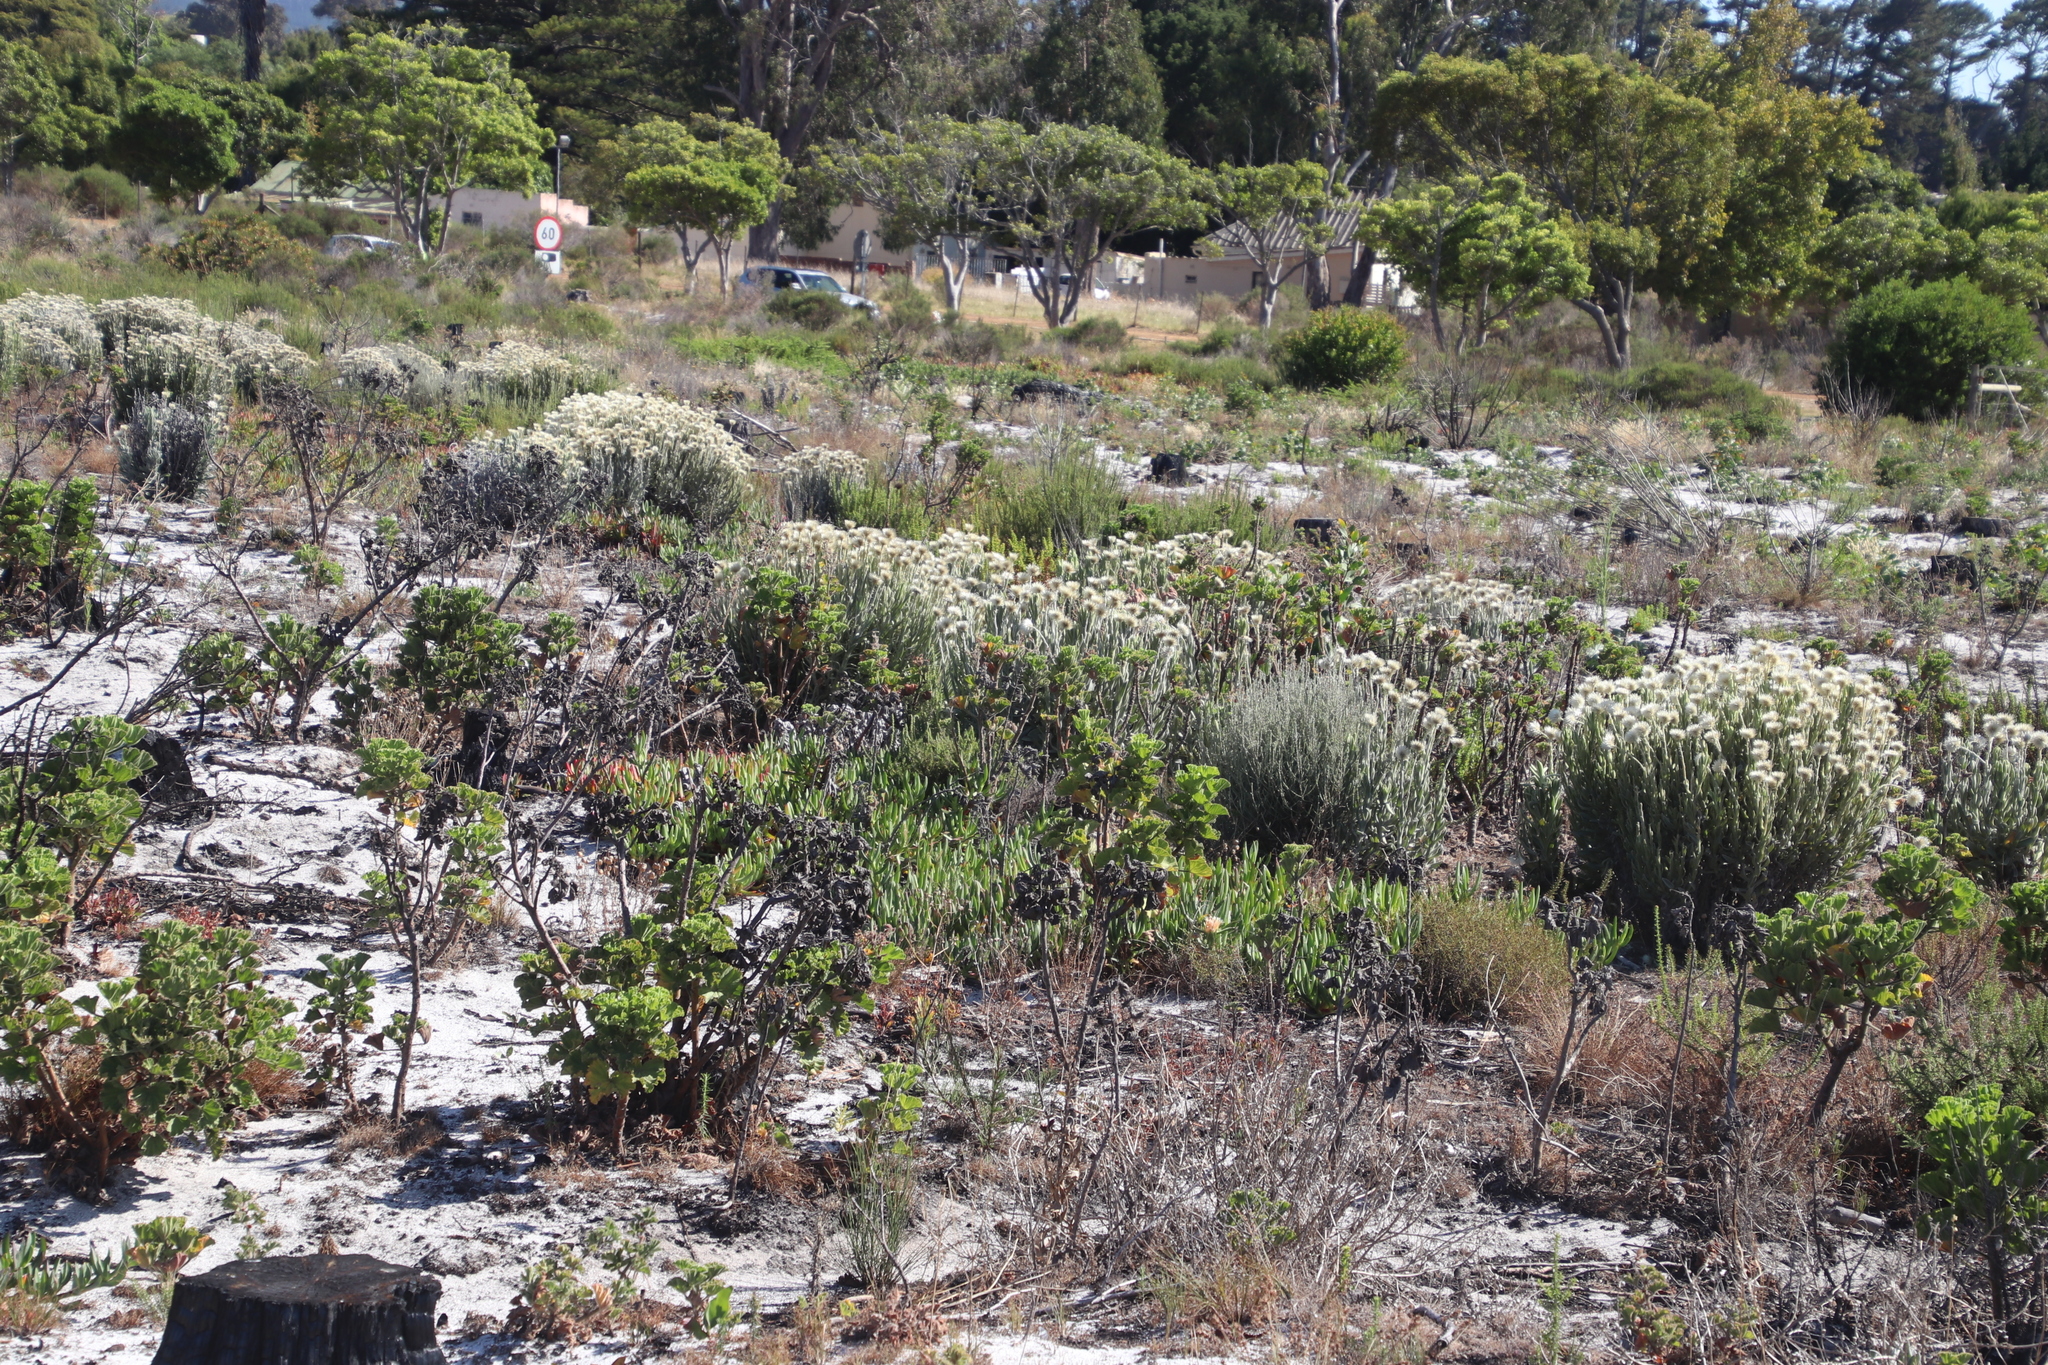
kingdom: Plantae
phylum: Tracheophyta
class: Magnoliopsida
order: Asterales
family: Asteraceae
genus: Syncarpha
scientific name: Syncarpha vestita
